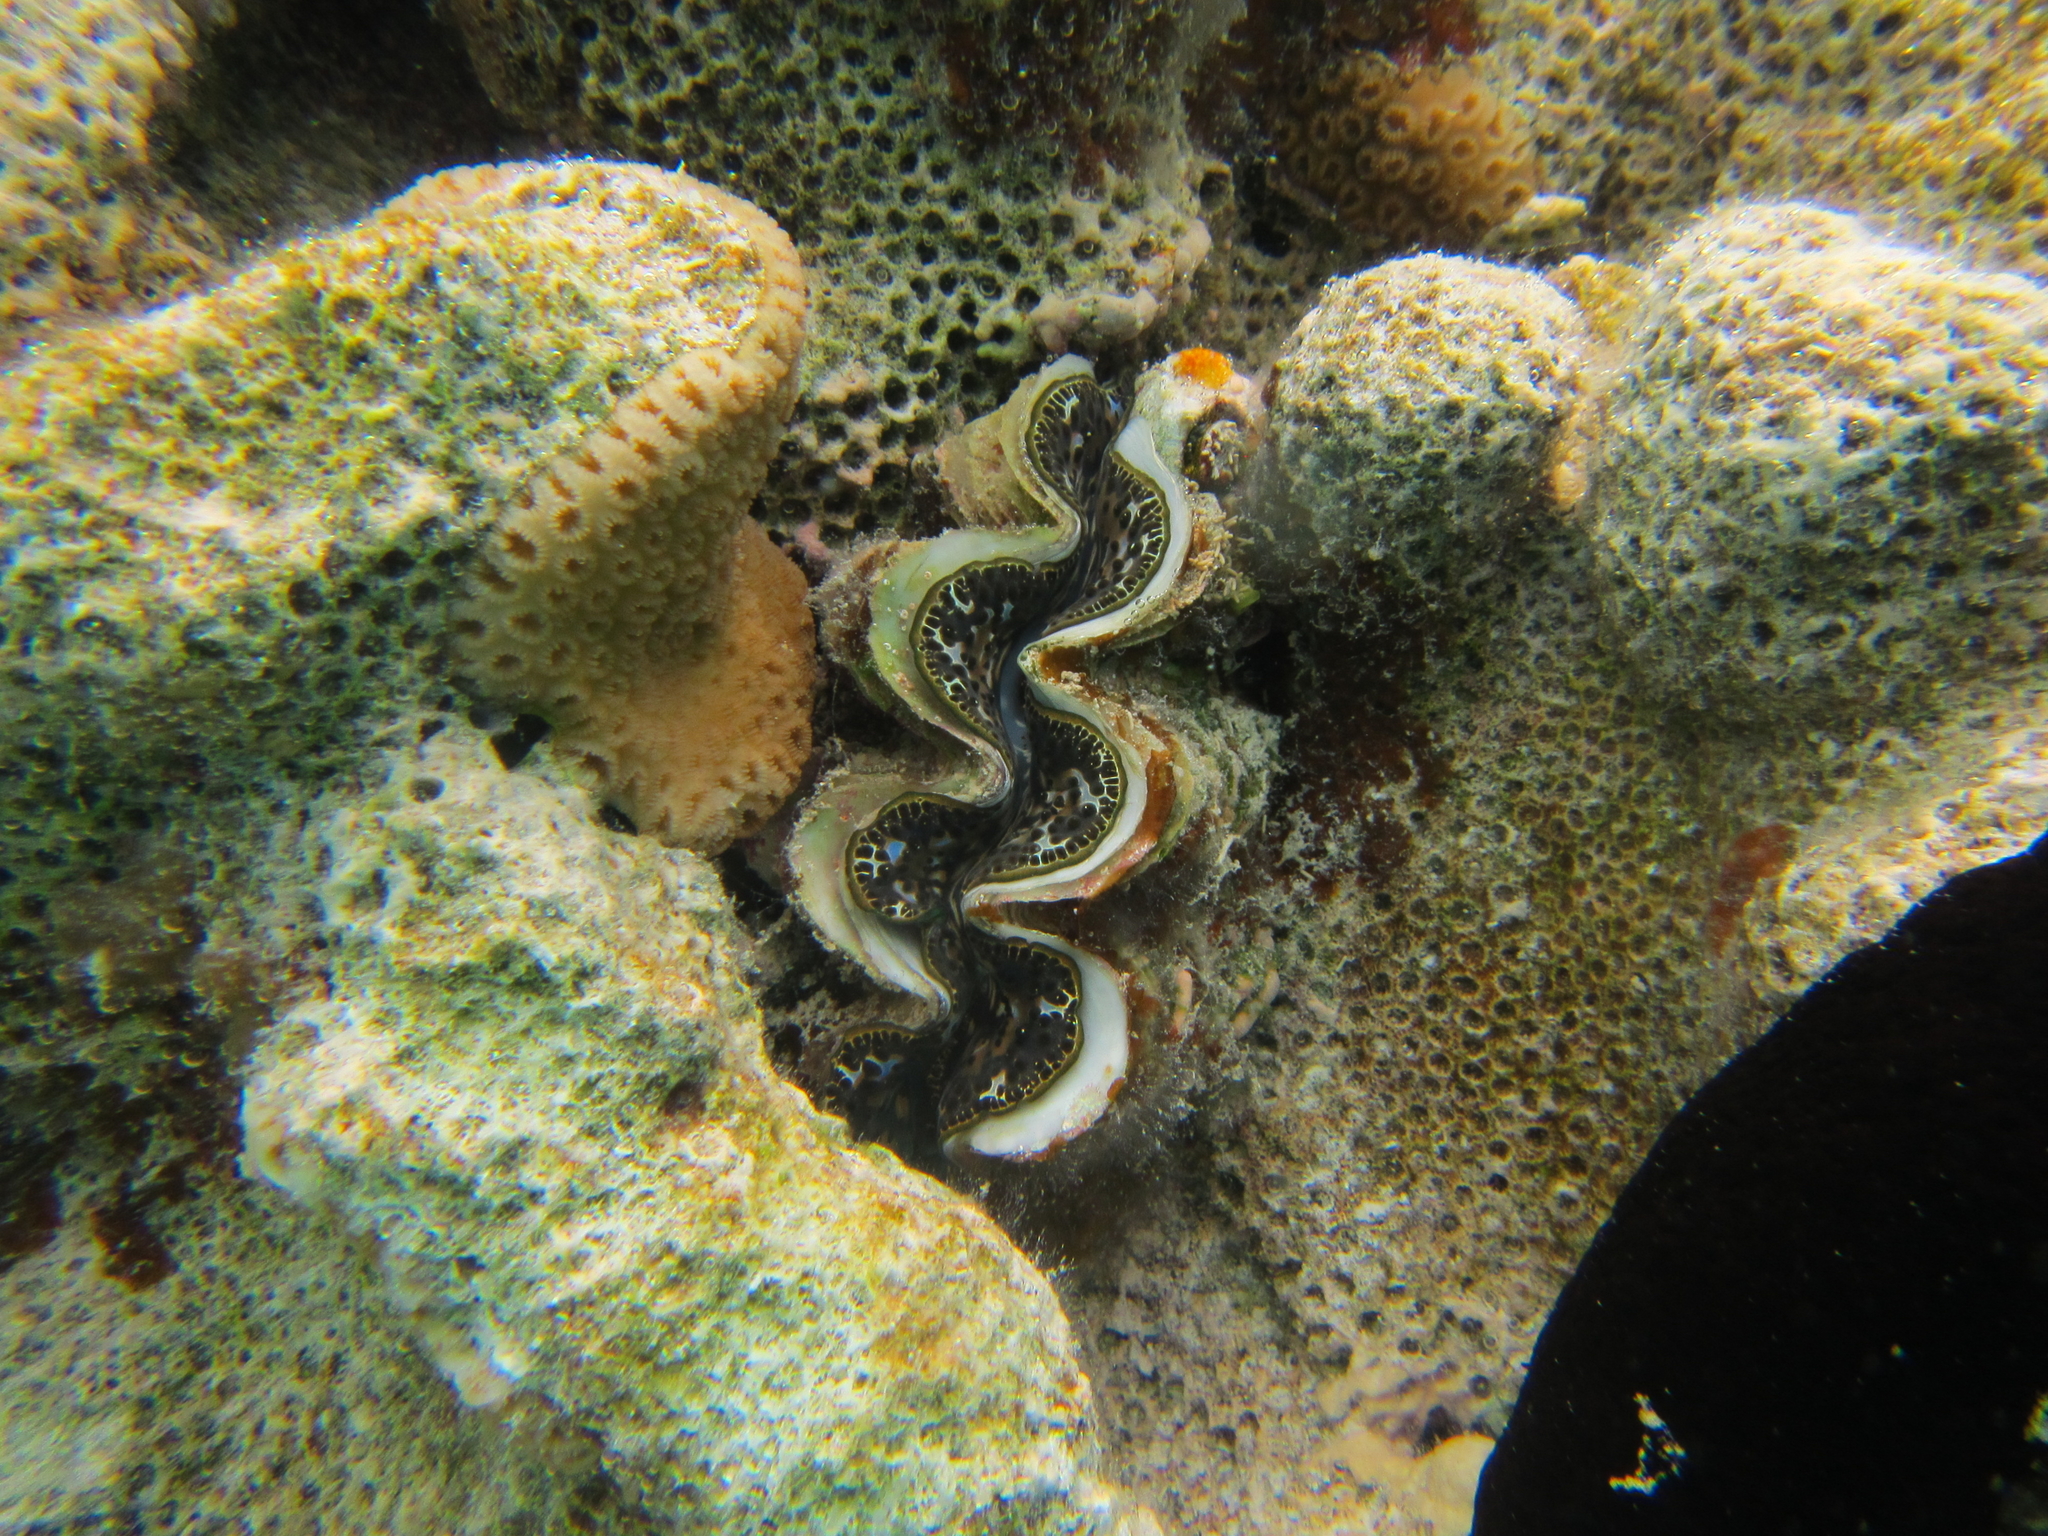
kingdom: Animalia
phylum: Mollusca
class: Bivalvia
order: Cardiida
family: Cardiidae
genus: Tridacna
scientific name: Tridacna maxima
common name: Small giant clam
